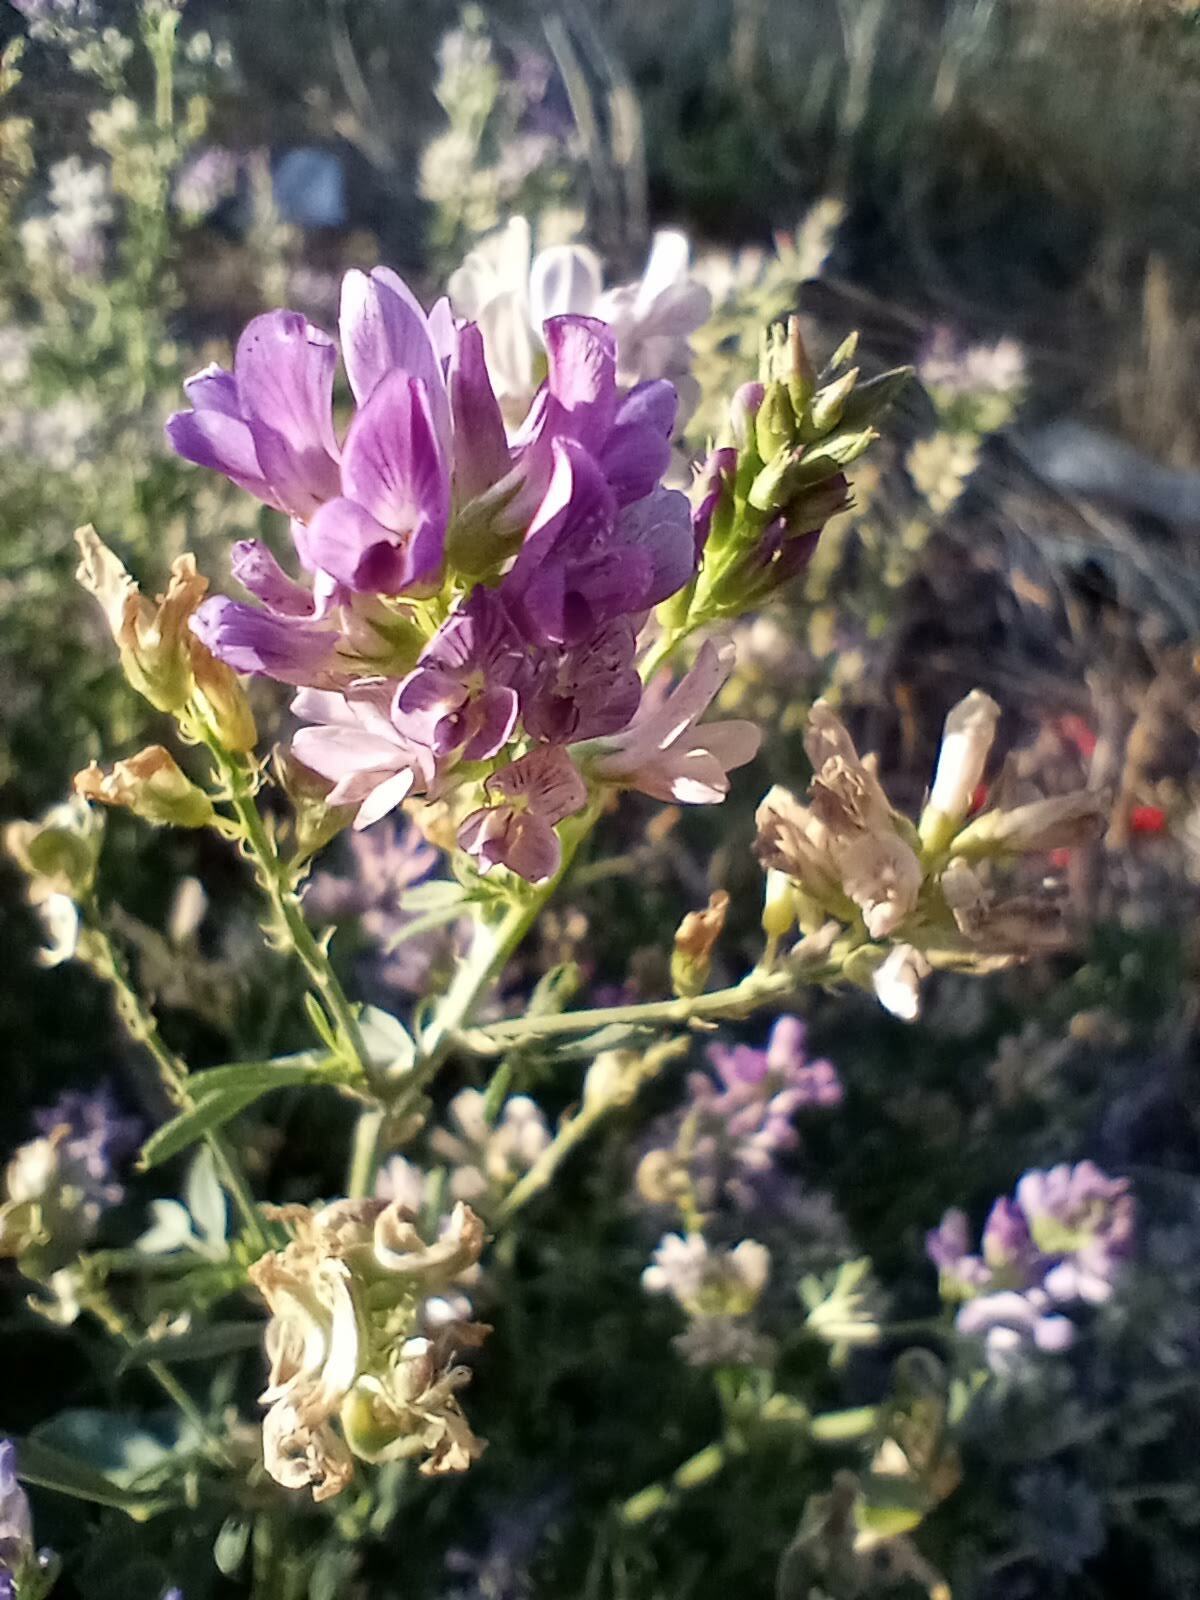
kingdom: Plantae
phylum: Tracheophyta
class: Magnoliopsida
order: Fabales
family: Fabaceae
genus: Medicago
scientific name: Medicago sativa
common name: Alfalfa
